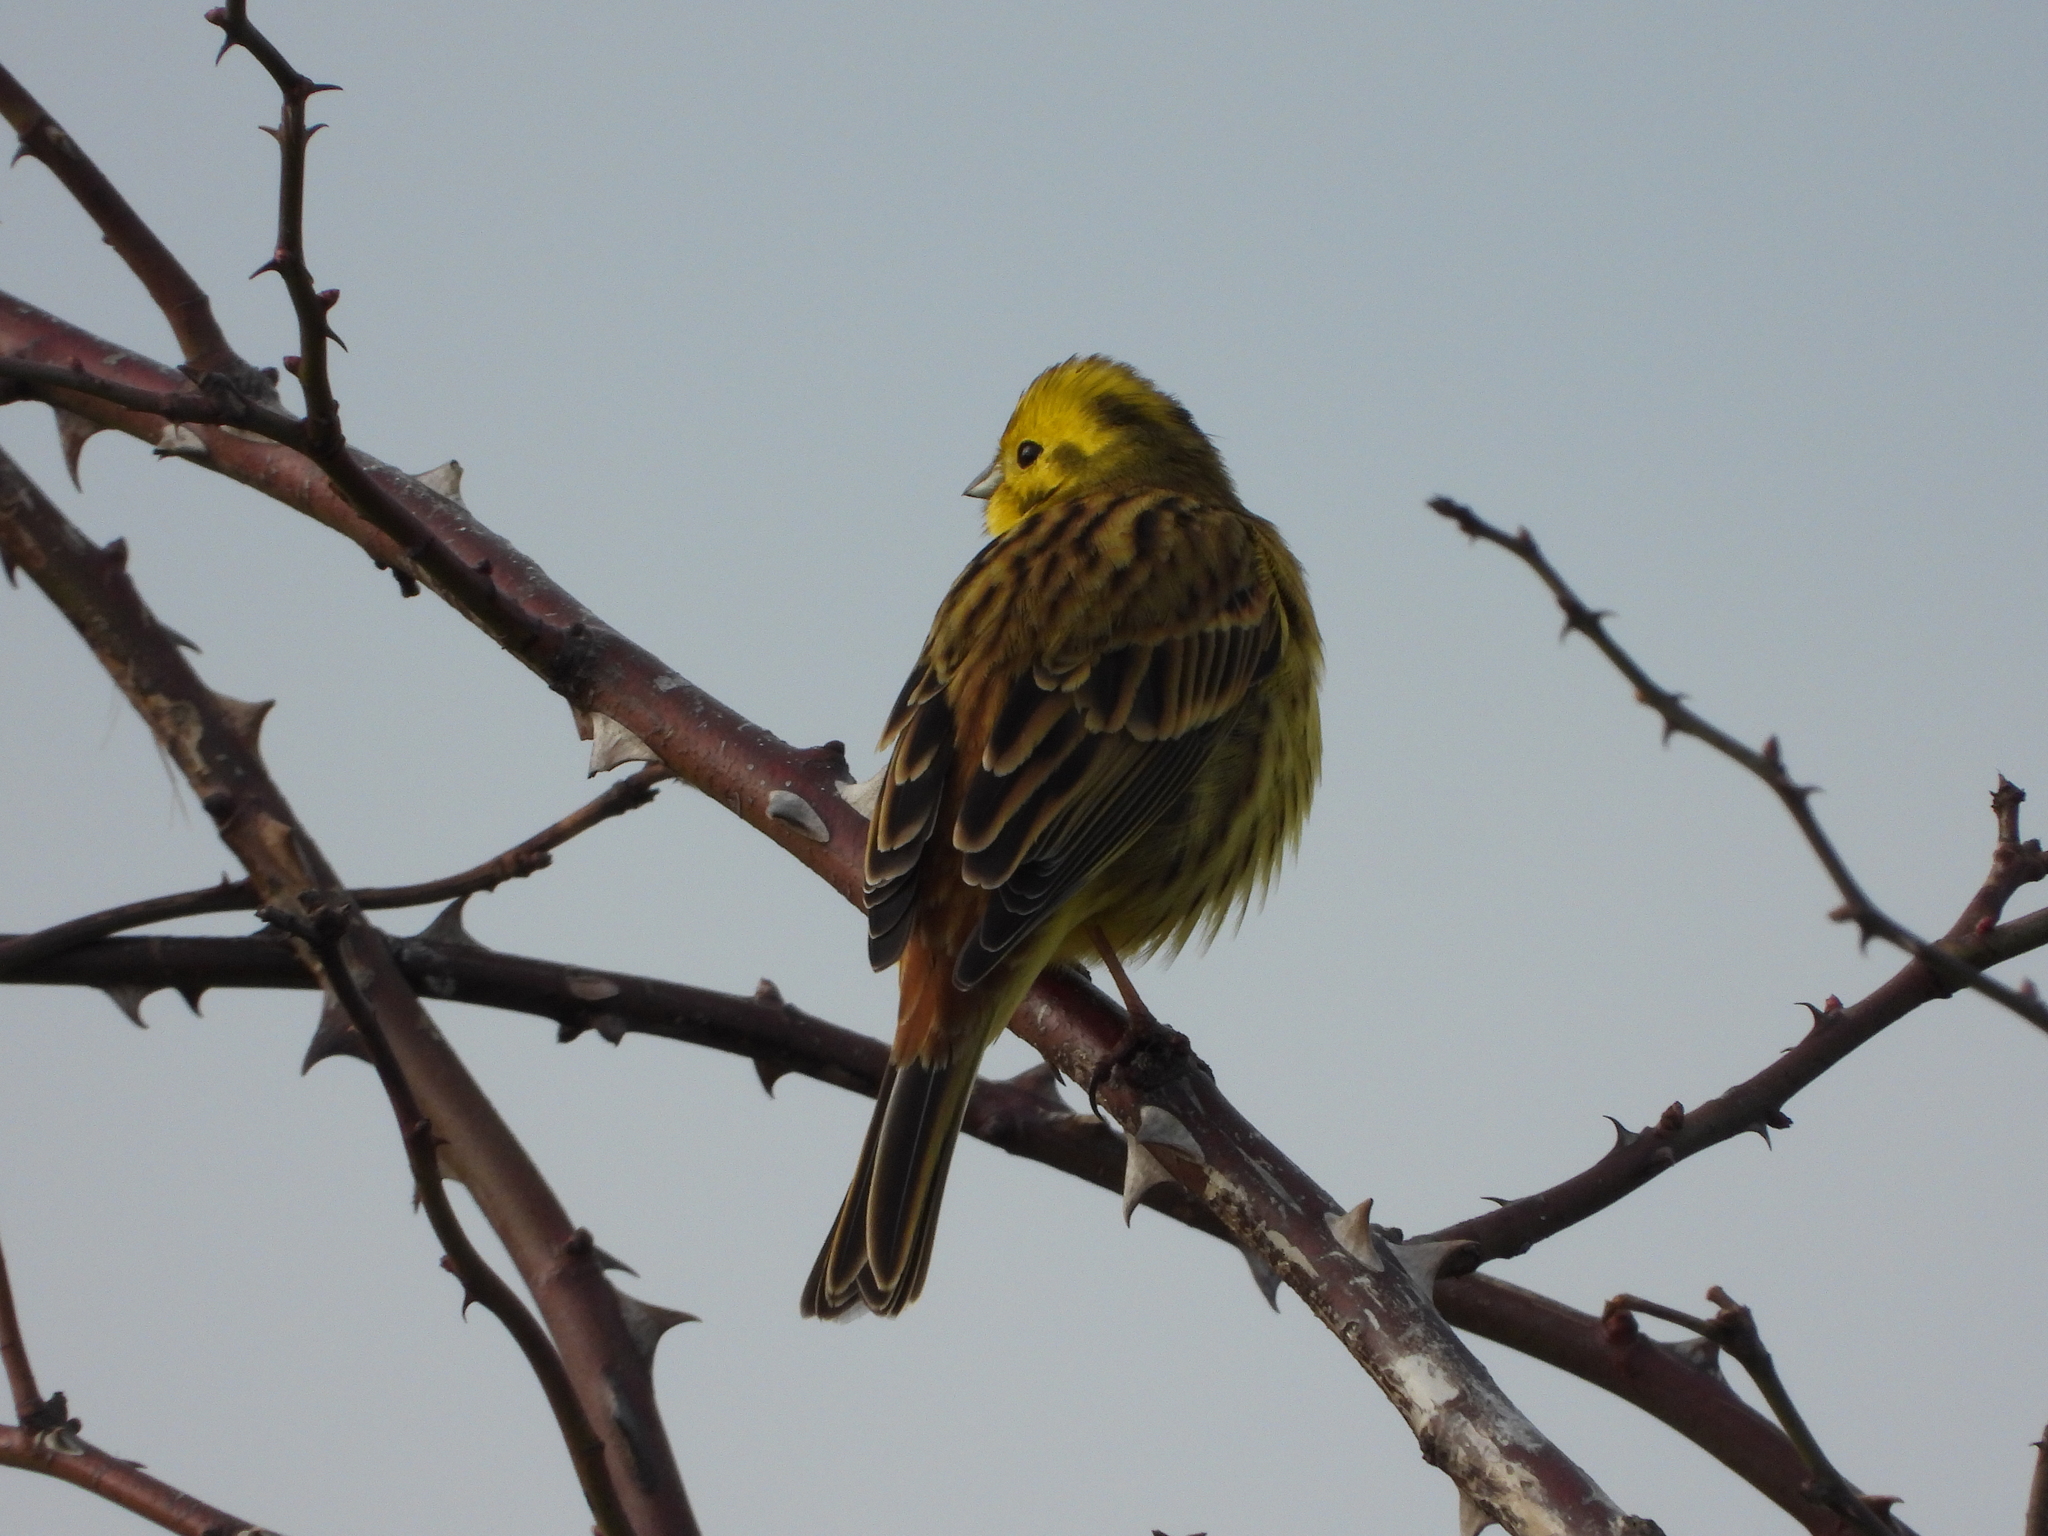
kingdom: Animalia
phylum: Chordata
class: Aves
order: Passeriformes
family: Emberizidae
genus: Emberiza
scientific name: Emberiza citrinella
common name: Yellowhammer
